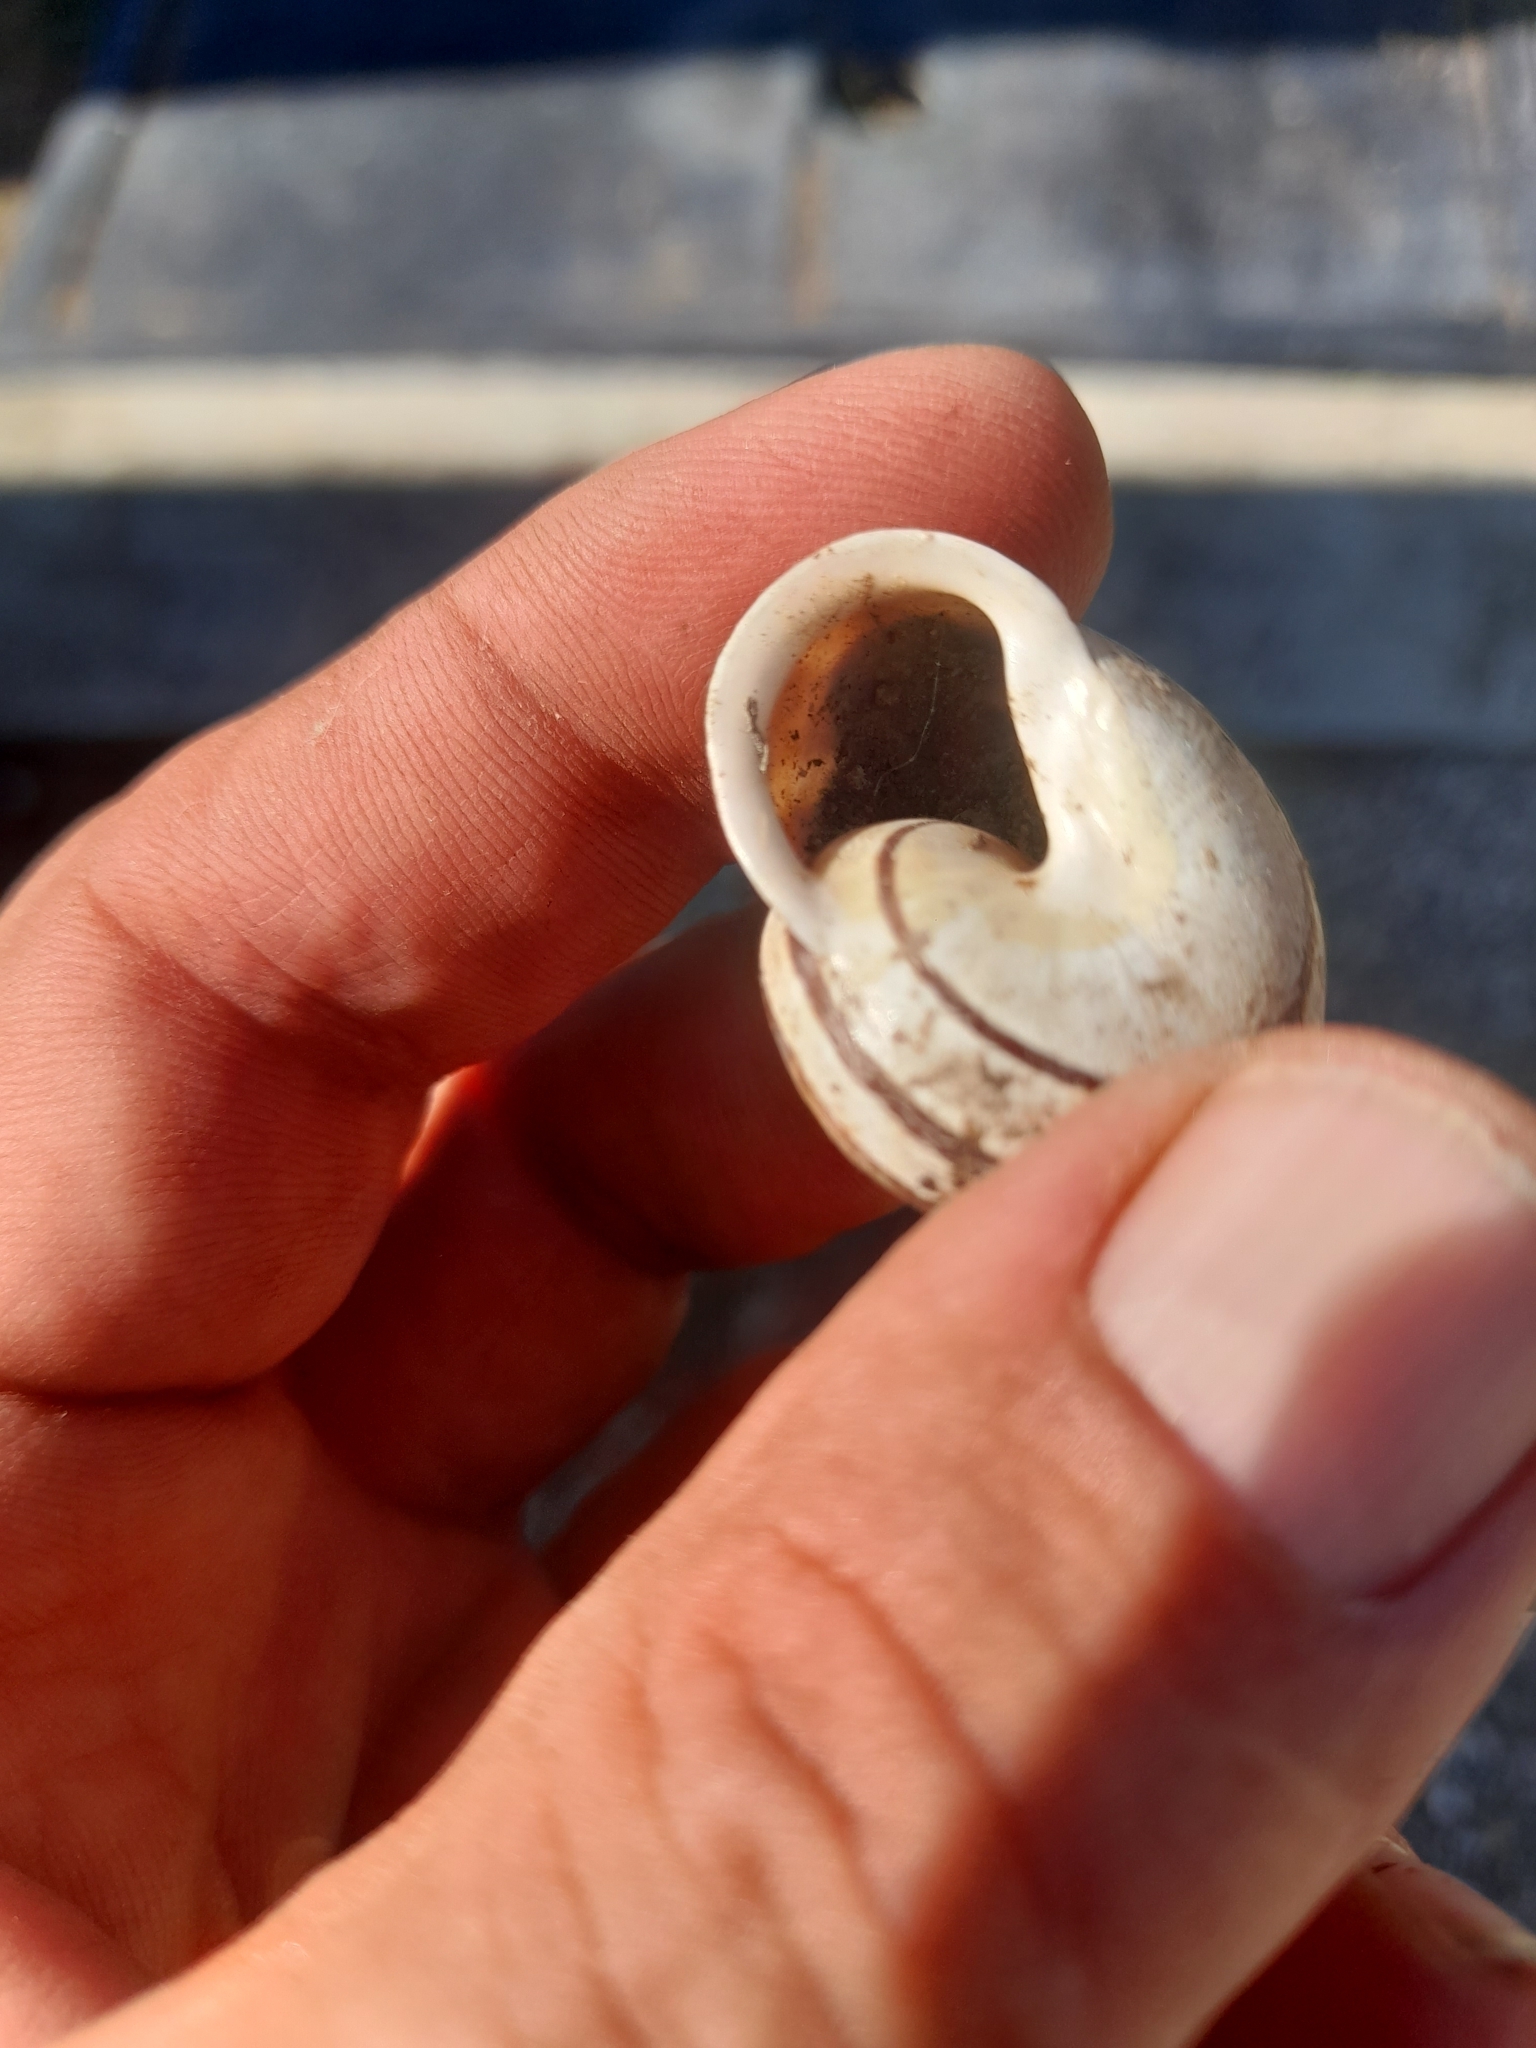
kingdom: Animalia
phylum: Mollusca
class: Gastropoda
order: Stylommatophora
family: Helicidae
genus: Eobania
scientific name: Eobania vermiculata
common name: Chocolateband snail
